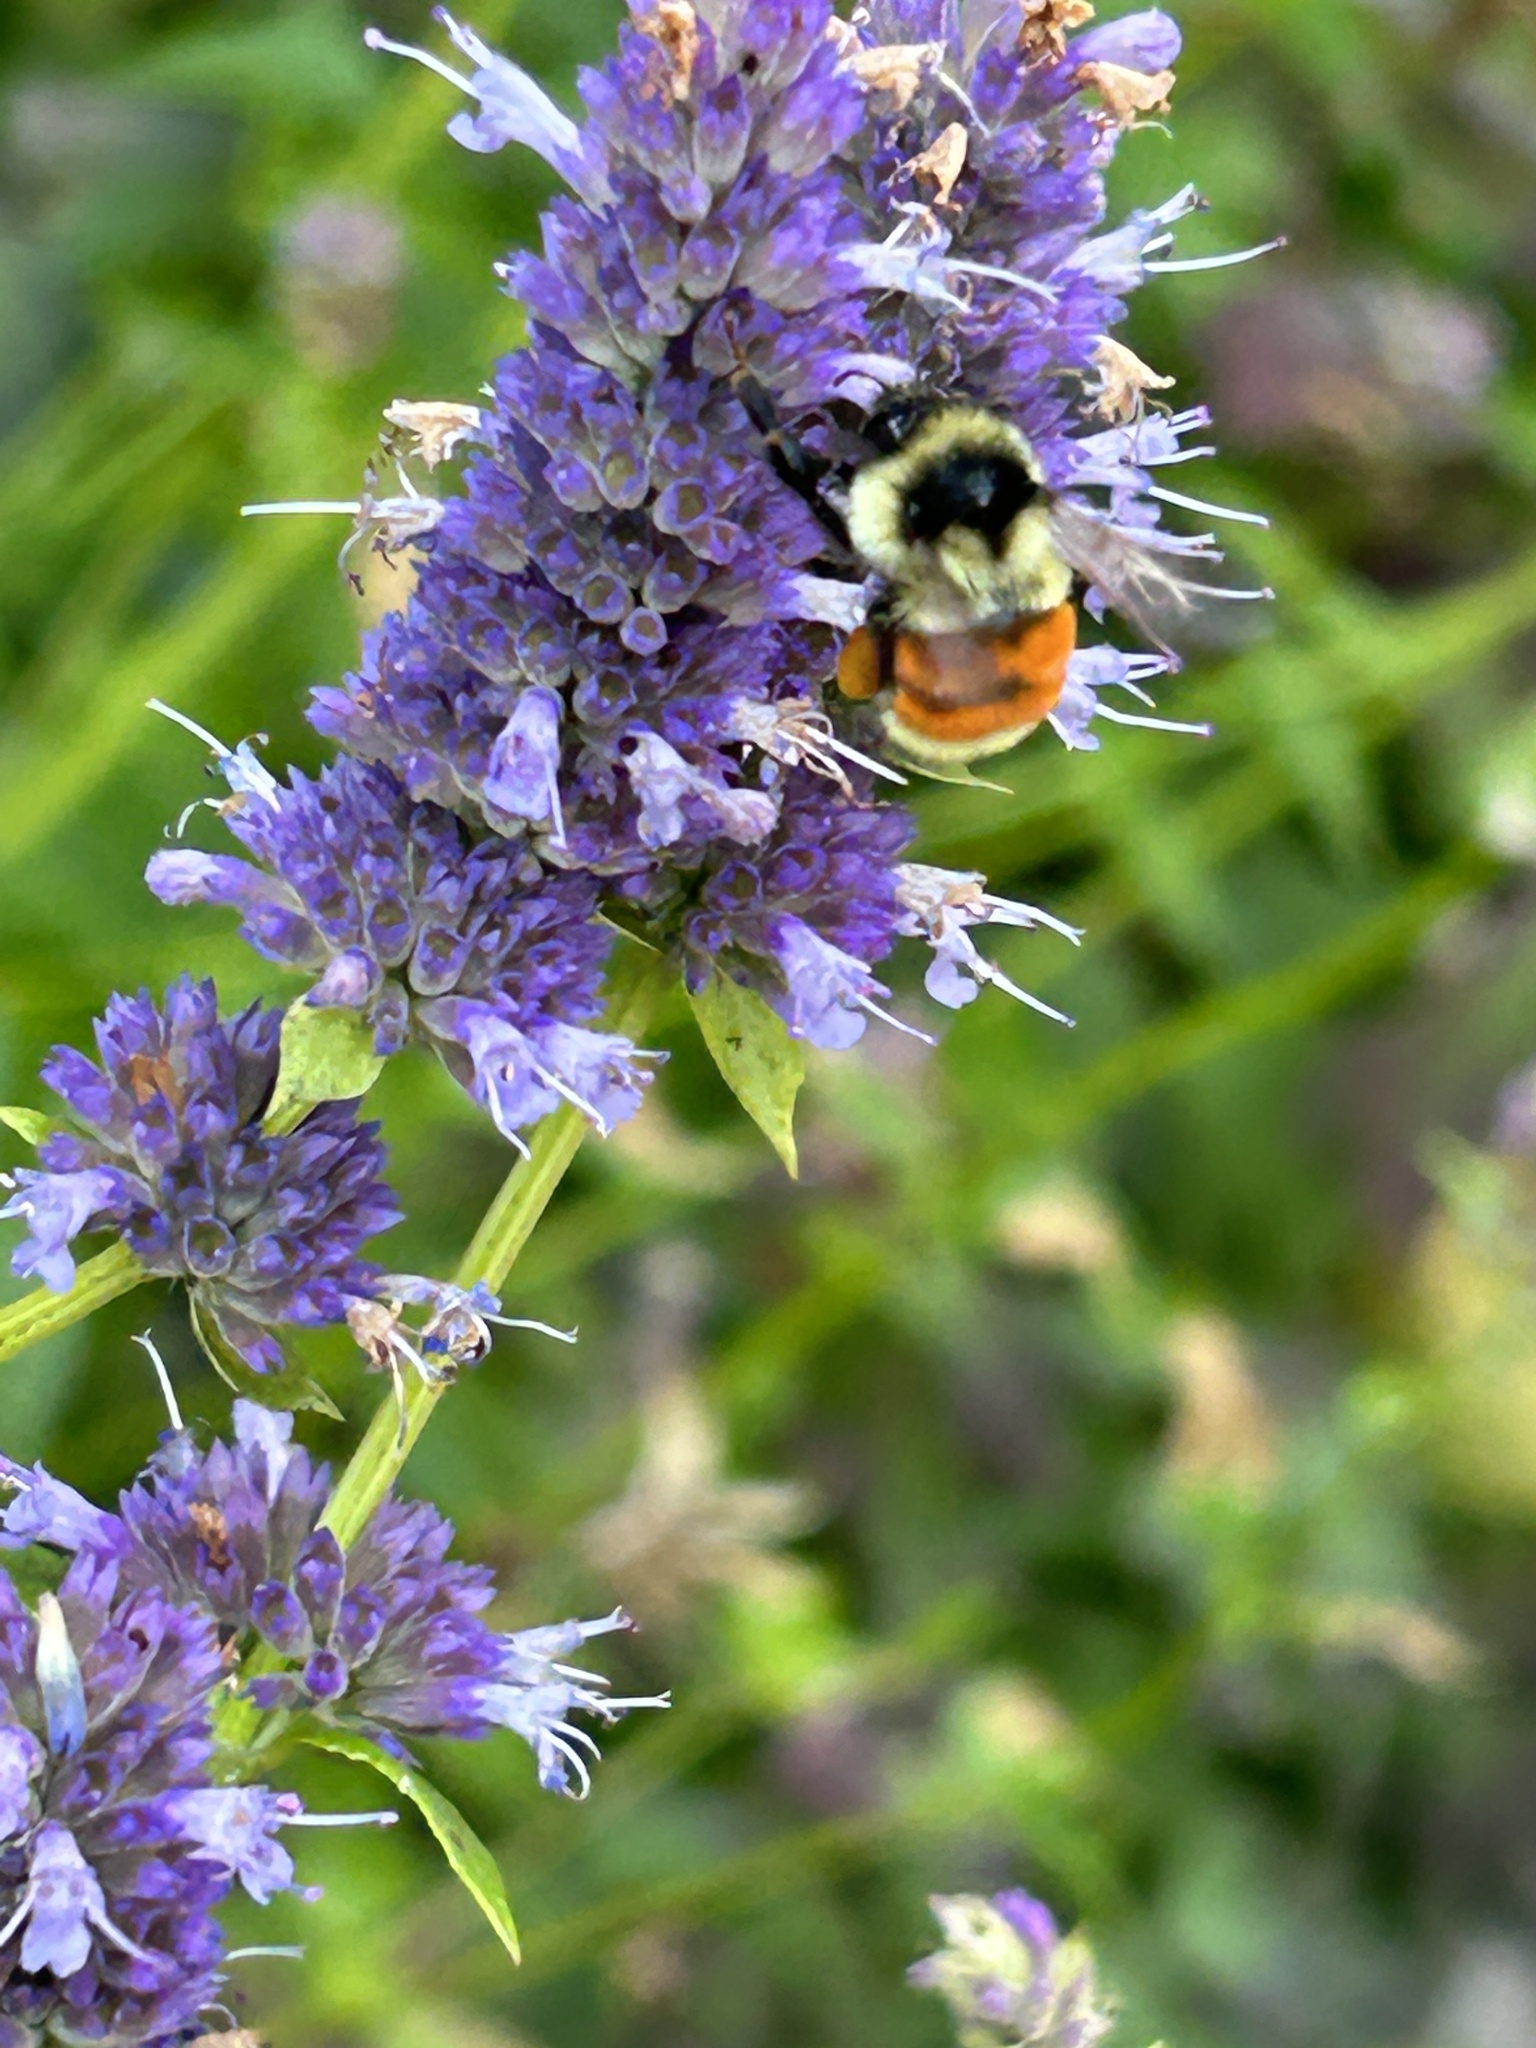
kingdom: Animalia
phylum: Arthropoda
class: Insecta
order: Hymenoptera
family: Apidae
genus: Bombus
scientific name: Bombus ternarius
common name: Tri-colored bumble bee
